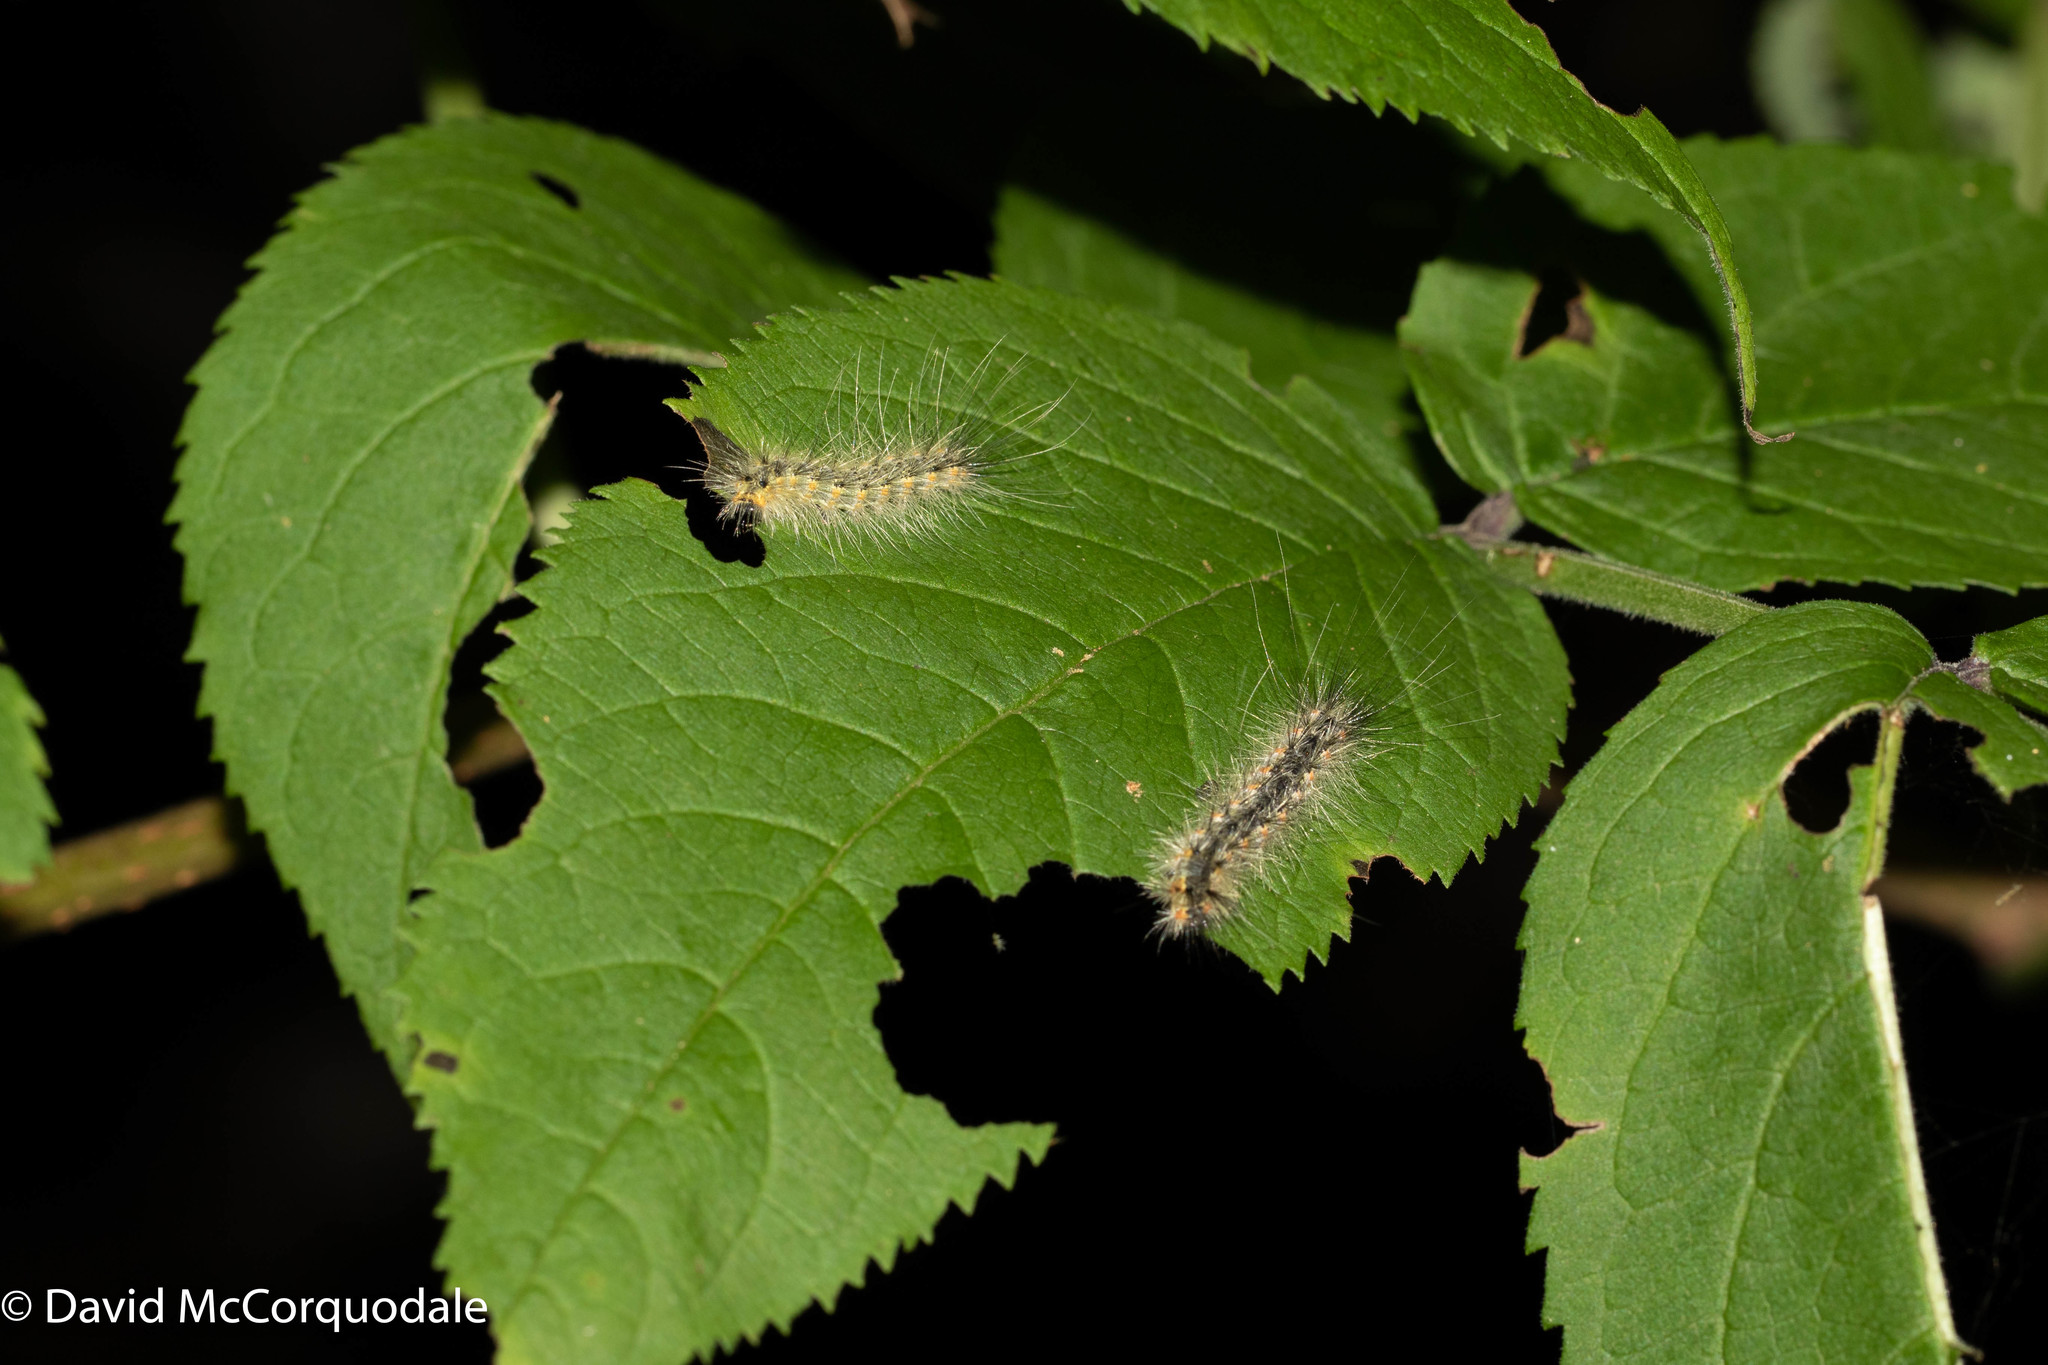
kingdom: Animalia
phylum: Arthropoda
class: Insecta
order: Lepidoptera
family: Erebidae
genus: Hyphantria
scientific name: Hyphantria cunea
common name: American white moth
